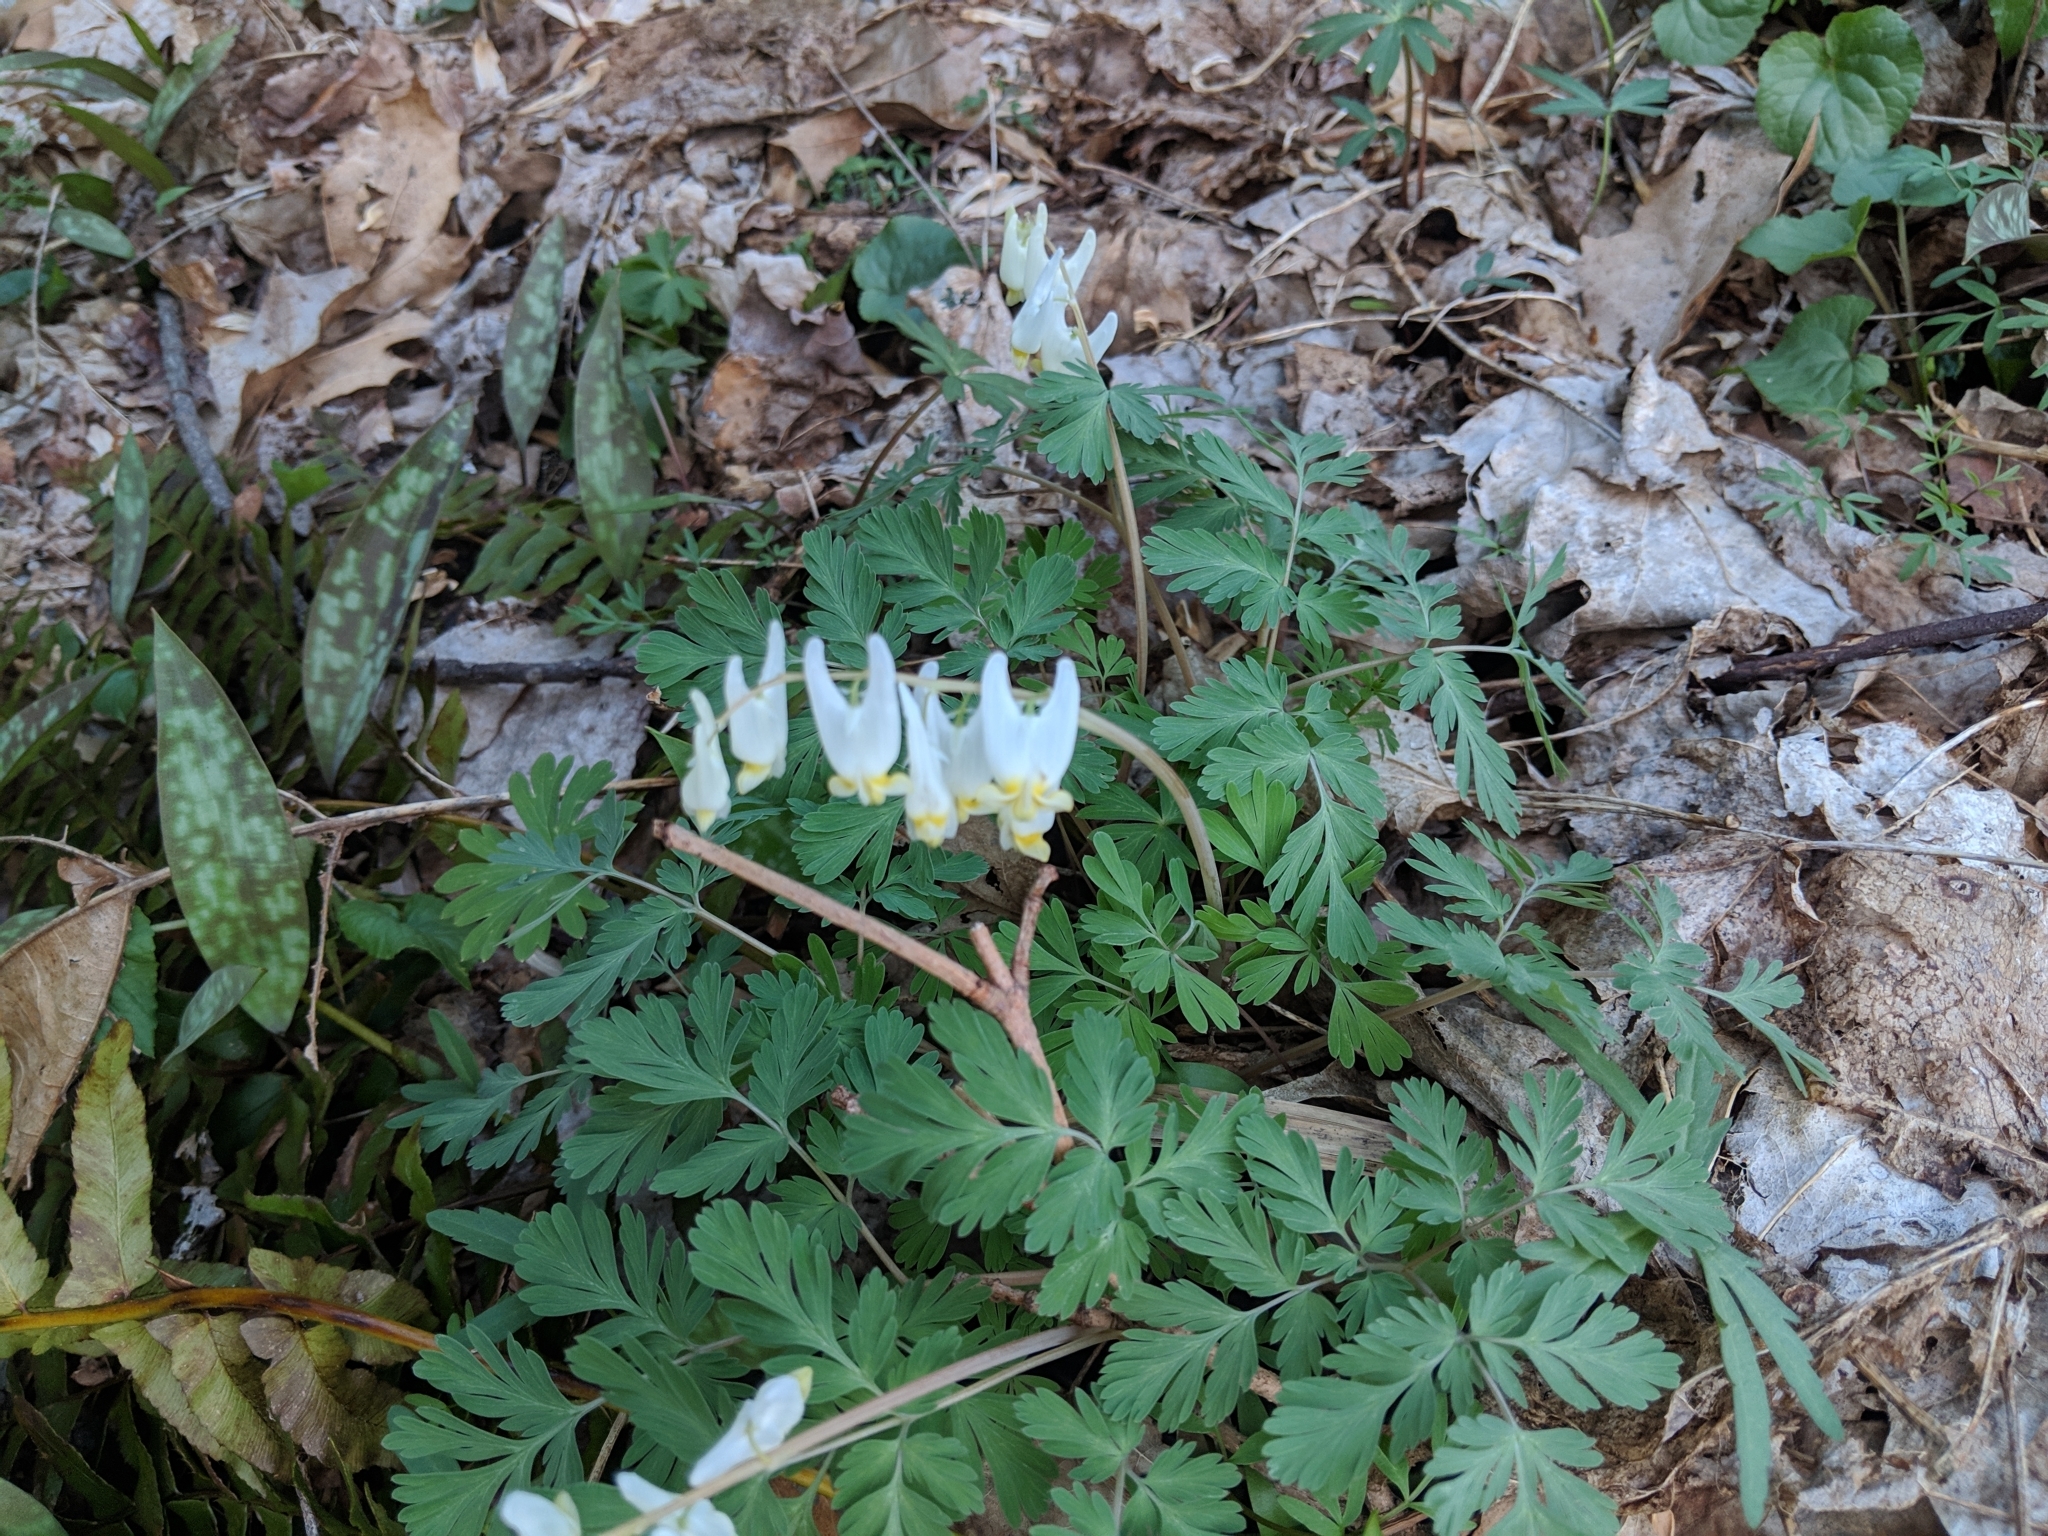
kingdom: Plantae
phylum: Tracheophyta
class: Magnoliopsida
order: Ranunculales
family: Papaveraceae
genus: Dicentra
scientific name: Dicentra cucullaria
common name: Dutchman's breeches
